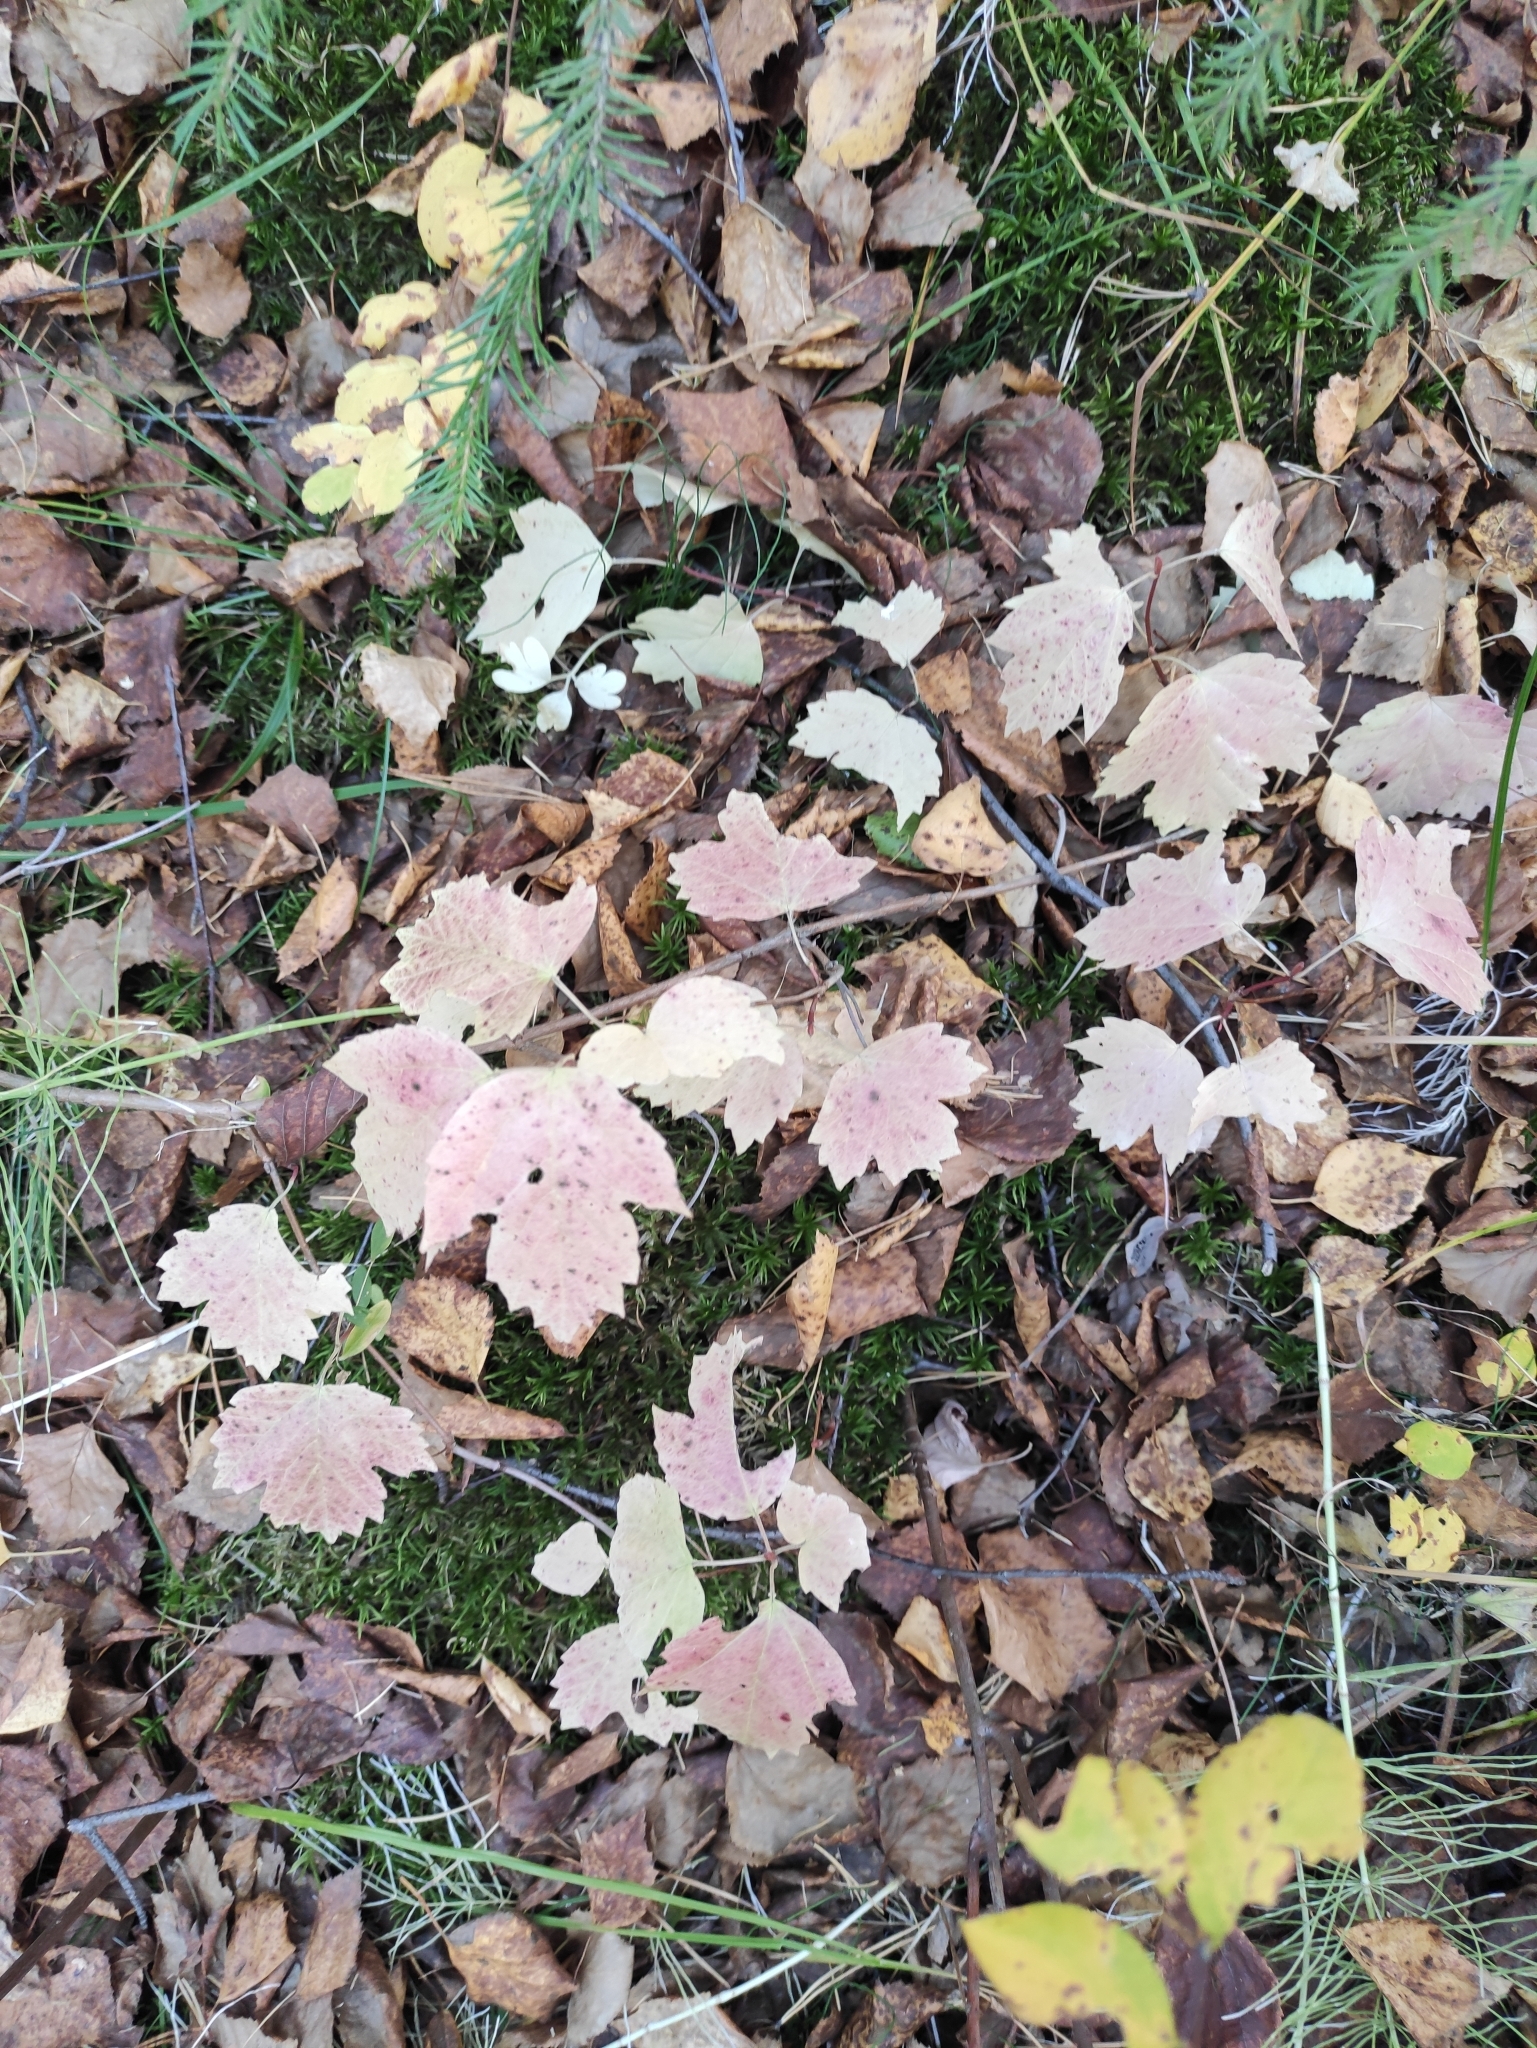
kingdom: Plantae
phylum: Tracheophyta
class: Magnoliopsida
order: Dipsacales
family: Viburnaceae
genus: Viburnum
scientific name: Viburnum opulus
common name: Guelder-rose
